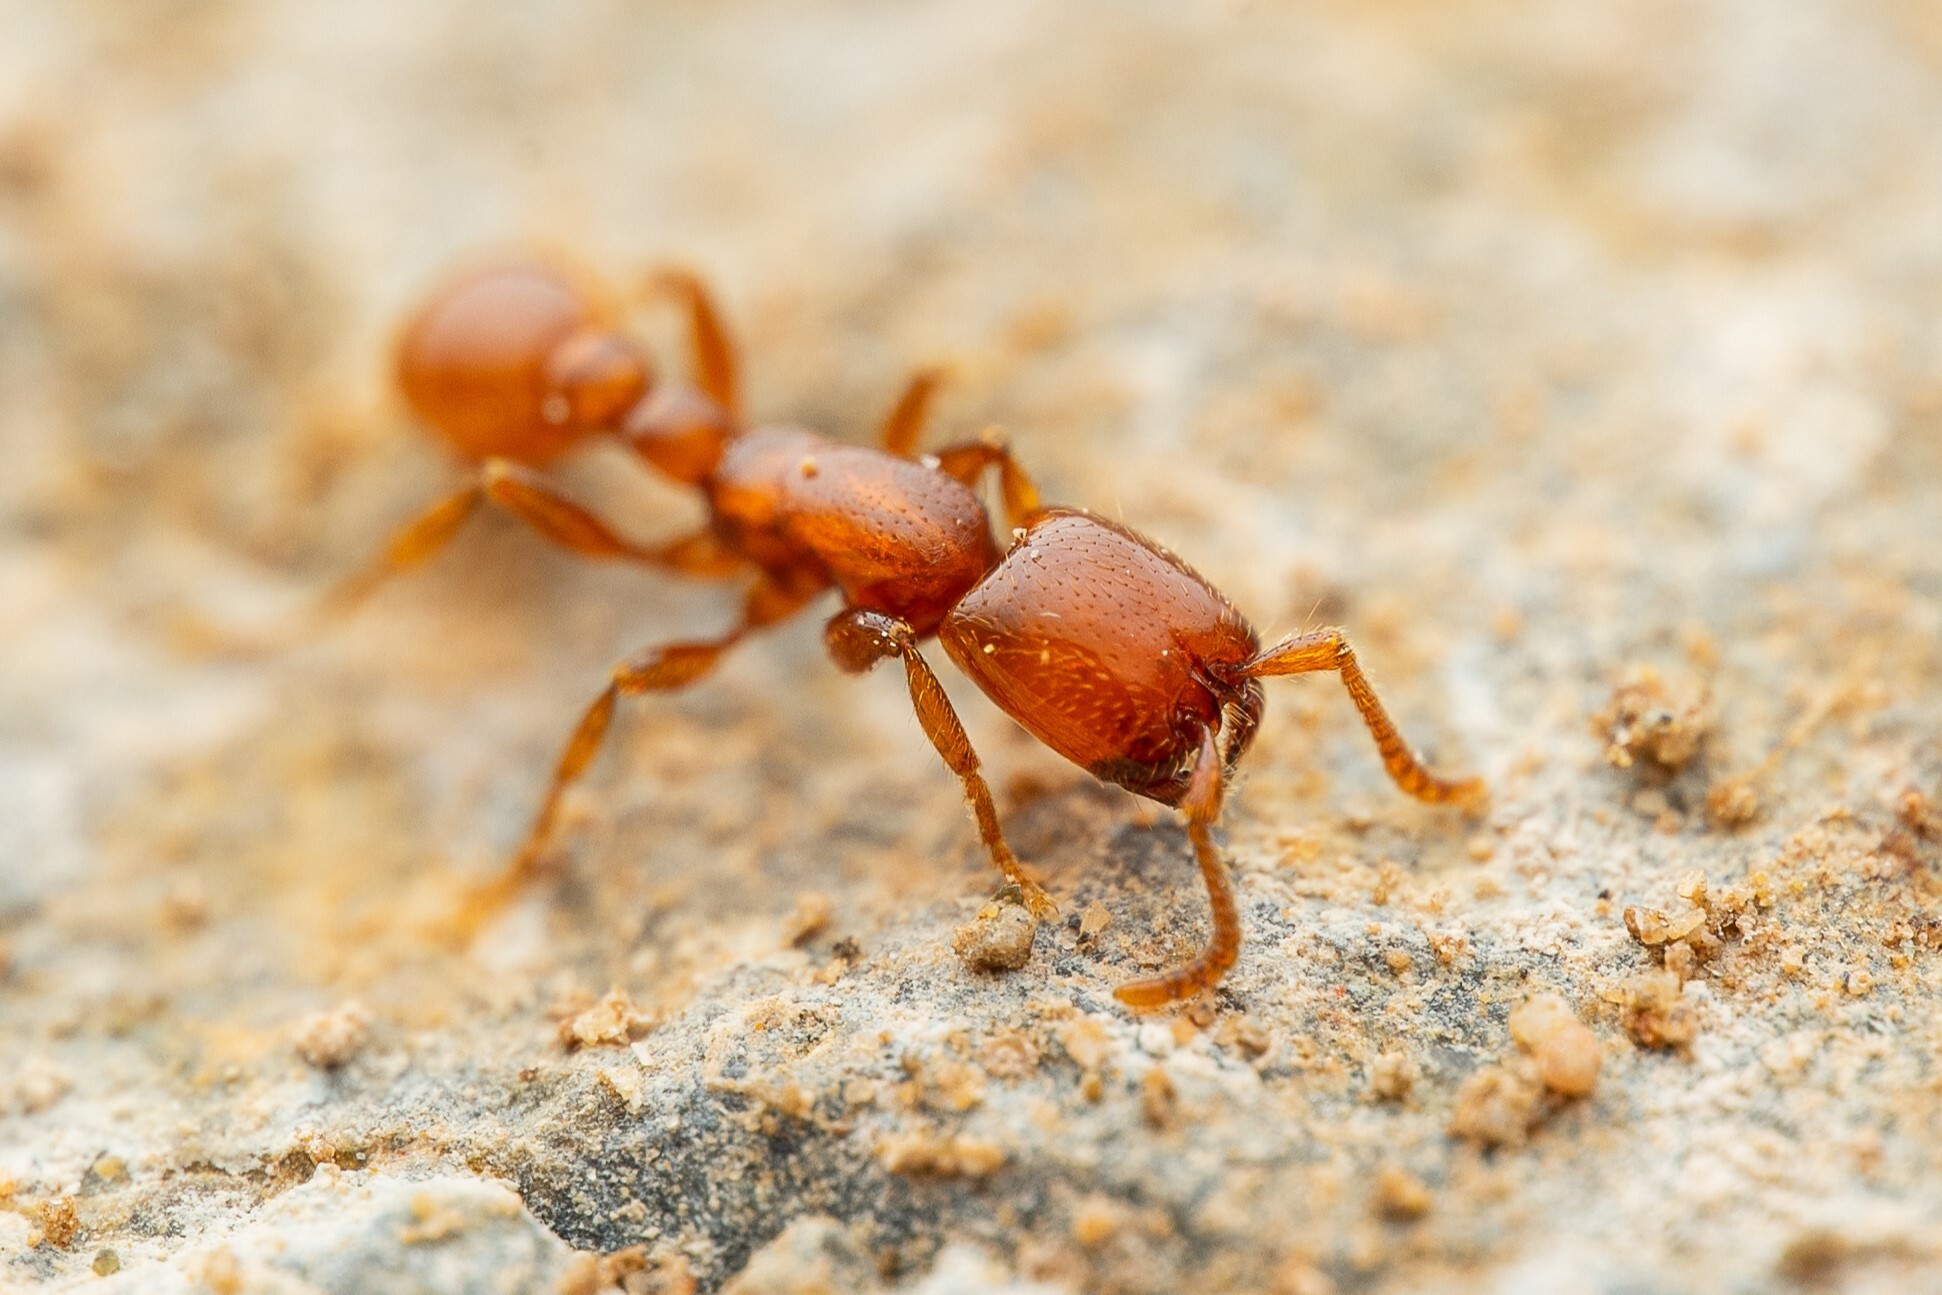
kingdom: Animalia
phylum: Arthropoda
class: Insecta
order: Hymenoptera
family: Formicidae
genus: Neivamyrmex
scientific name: Neivamyrmex leonardi
